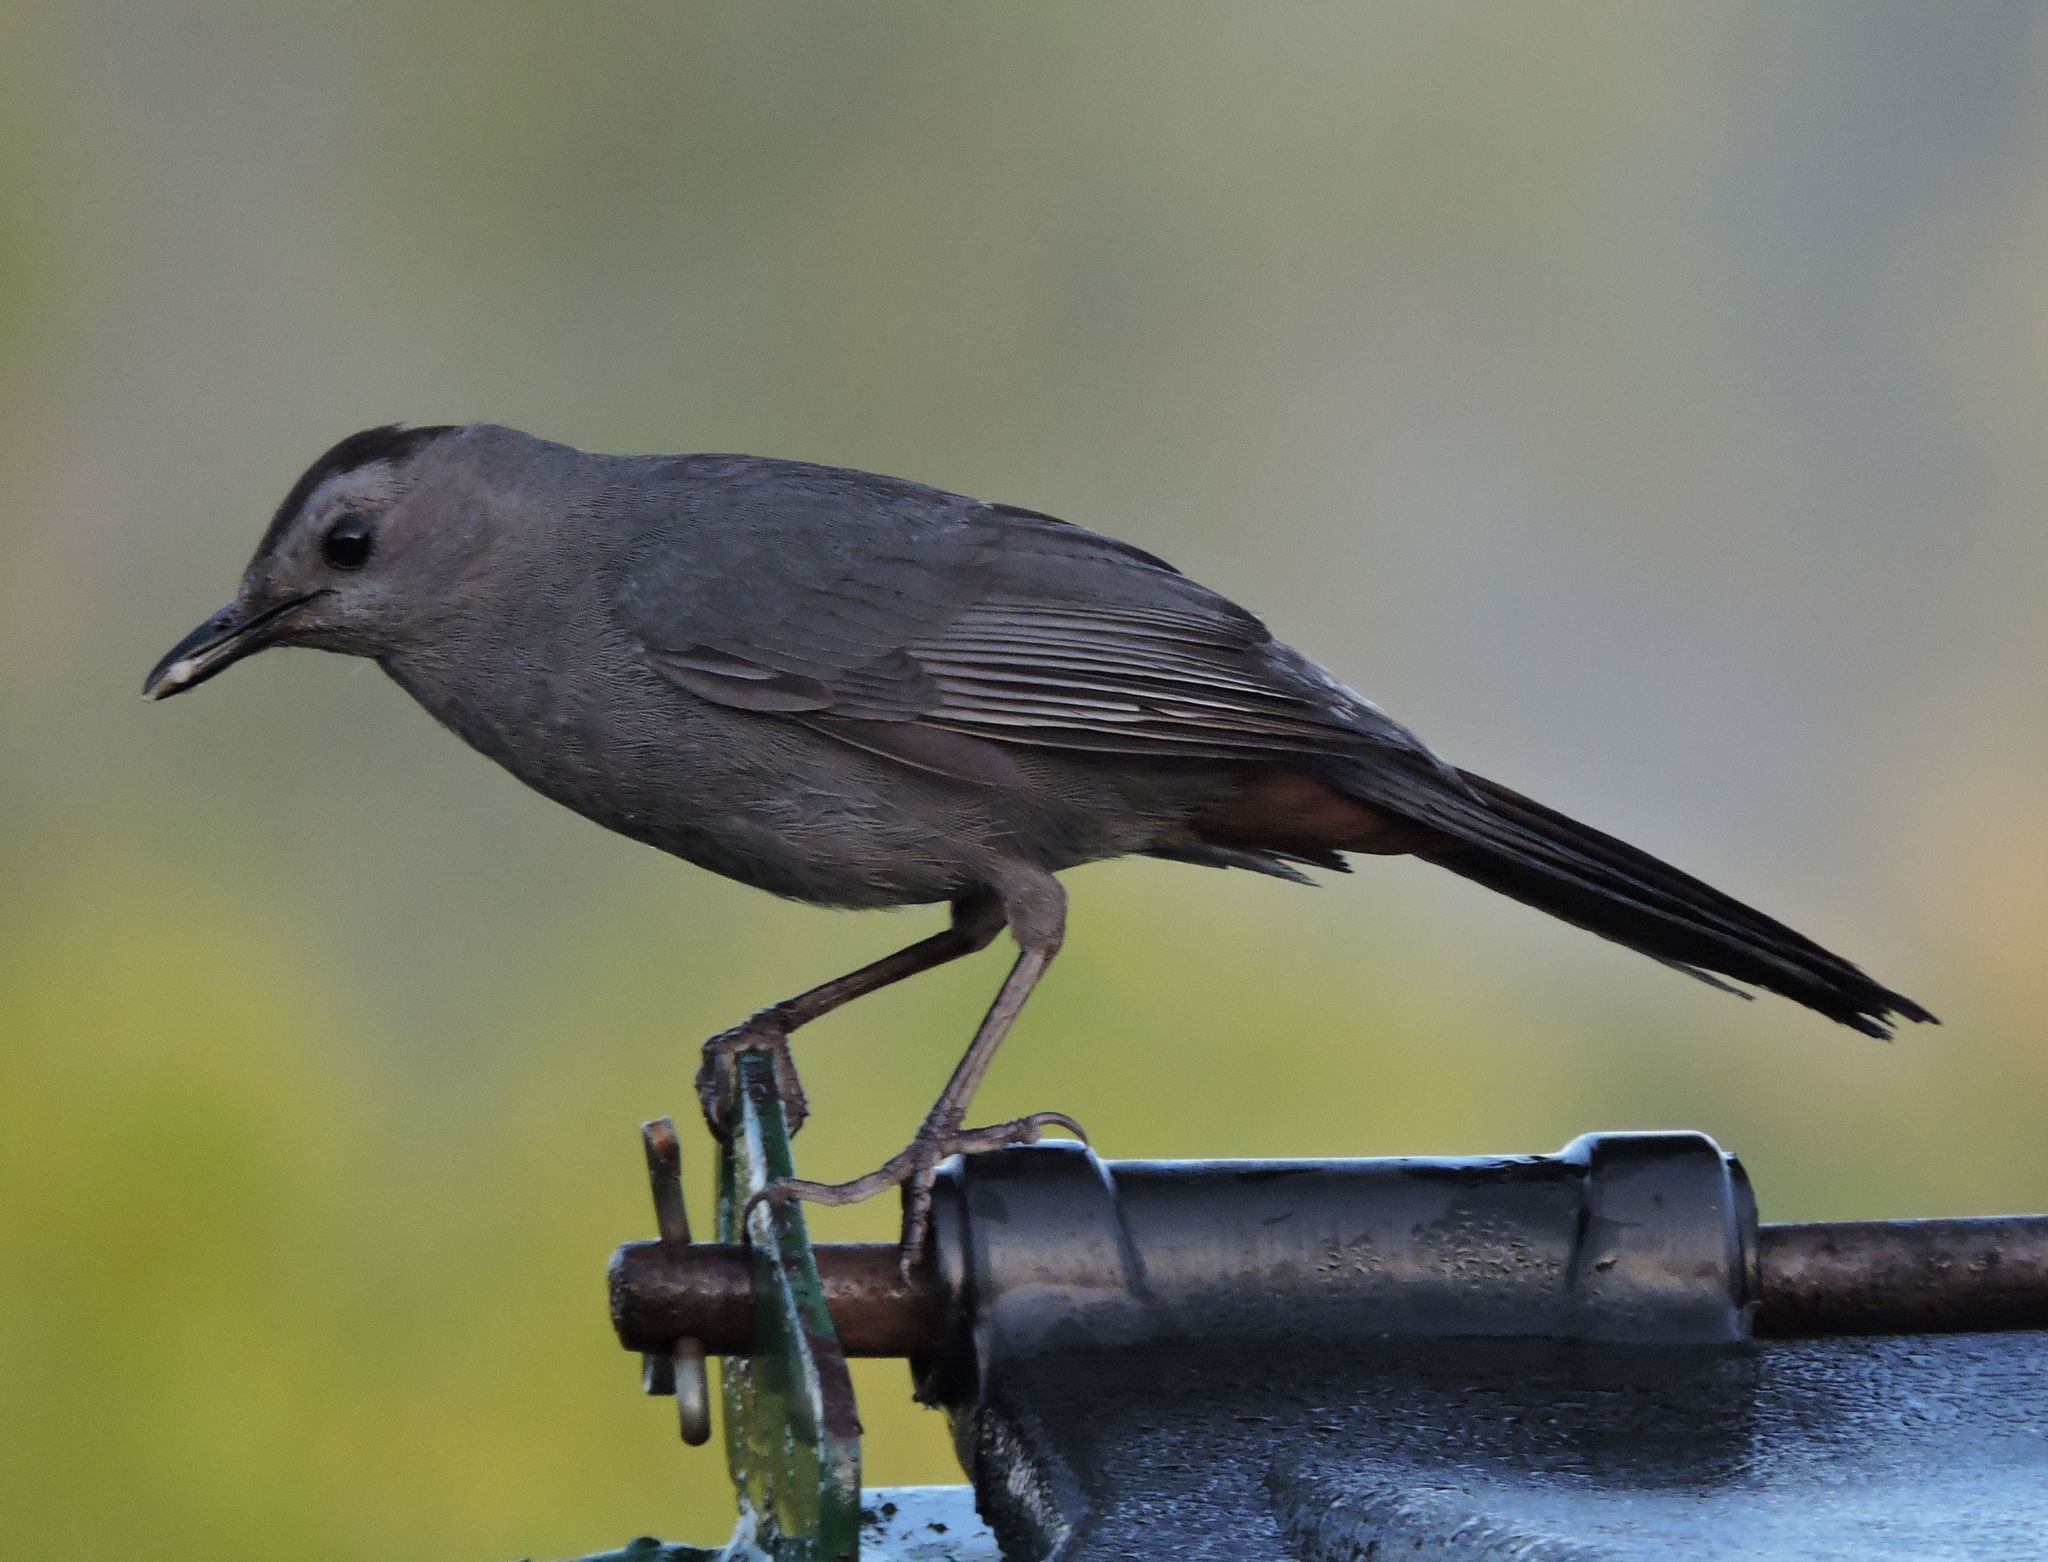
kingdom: Animalia
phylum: Chordata
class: Aves
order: Passeriformes
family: Mimidae
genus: Dumetella
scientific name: Dumetella carolinensis
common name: Gray catbird
